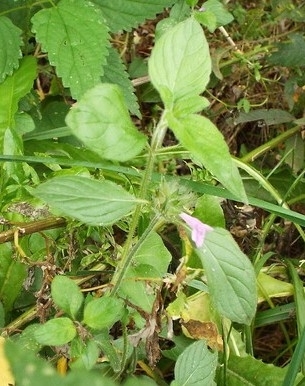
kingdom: Plantae
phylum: Tracheophyta
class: Magnoliopsida
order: Lamiales
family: Lamiaceae
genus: Clinopodium
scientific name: Clinopodium vulgare
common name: Wild basil
